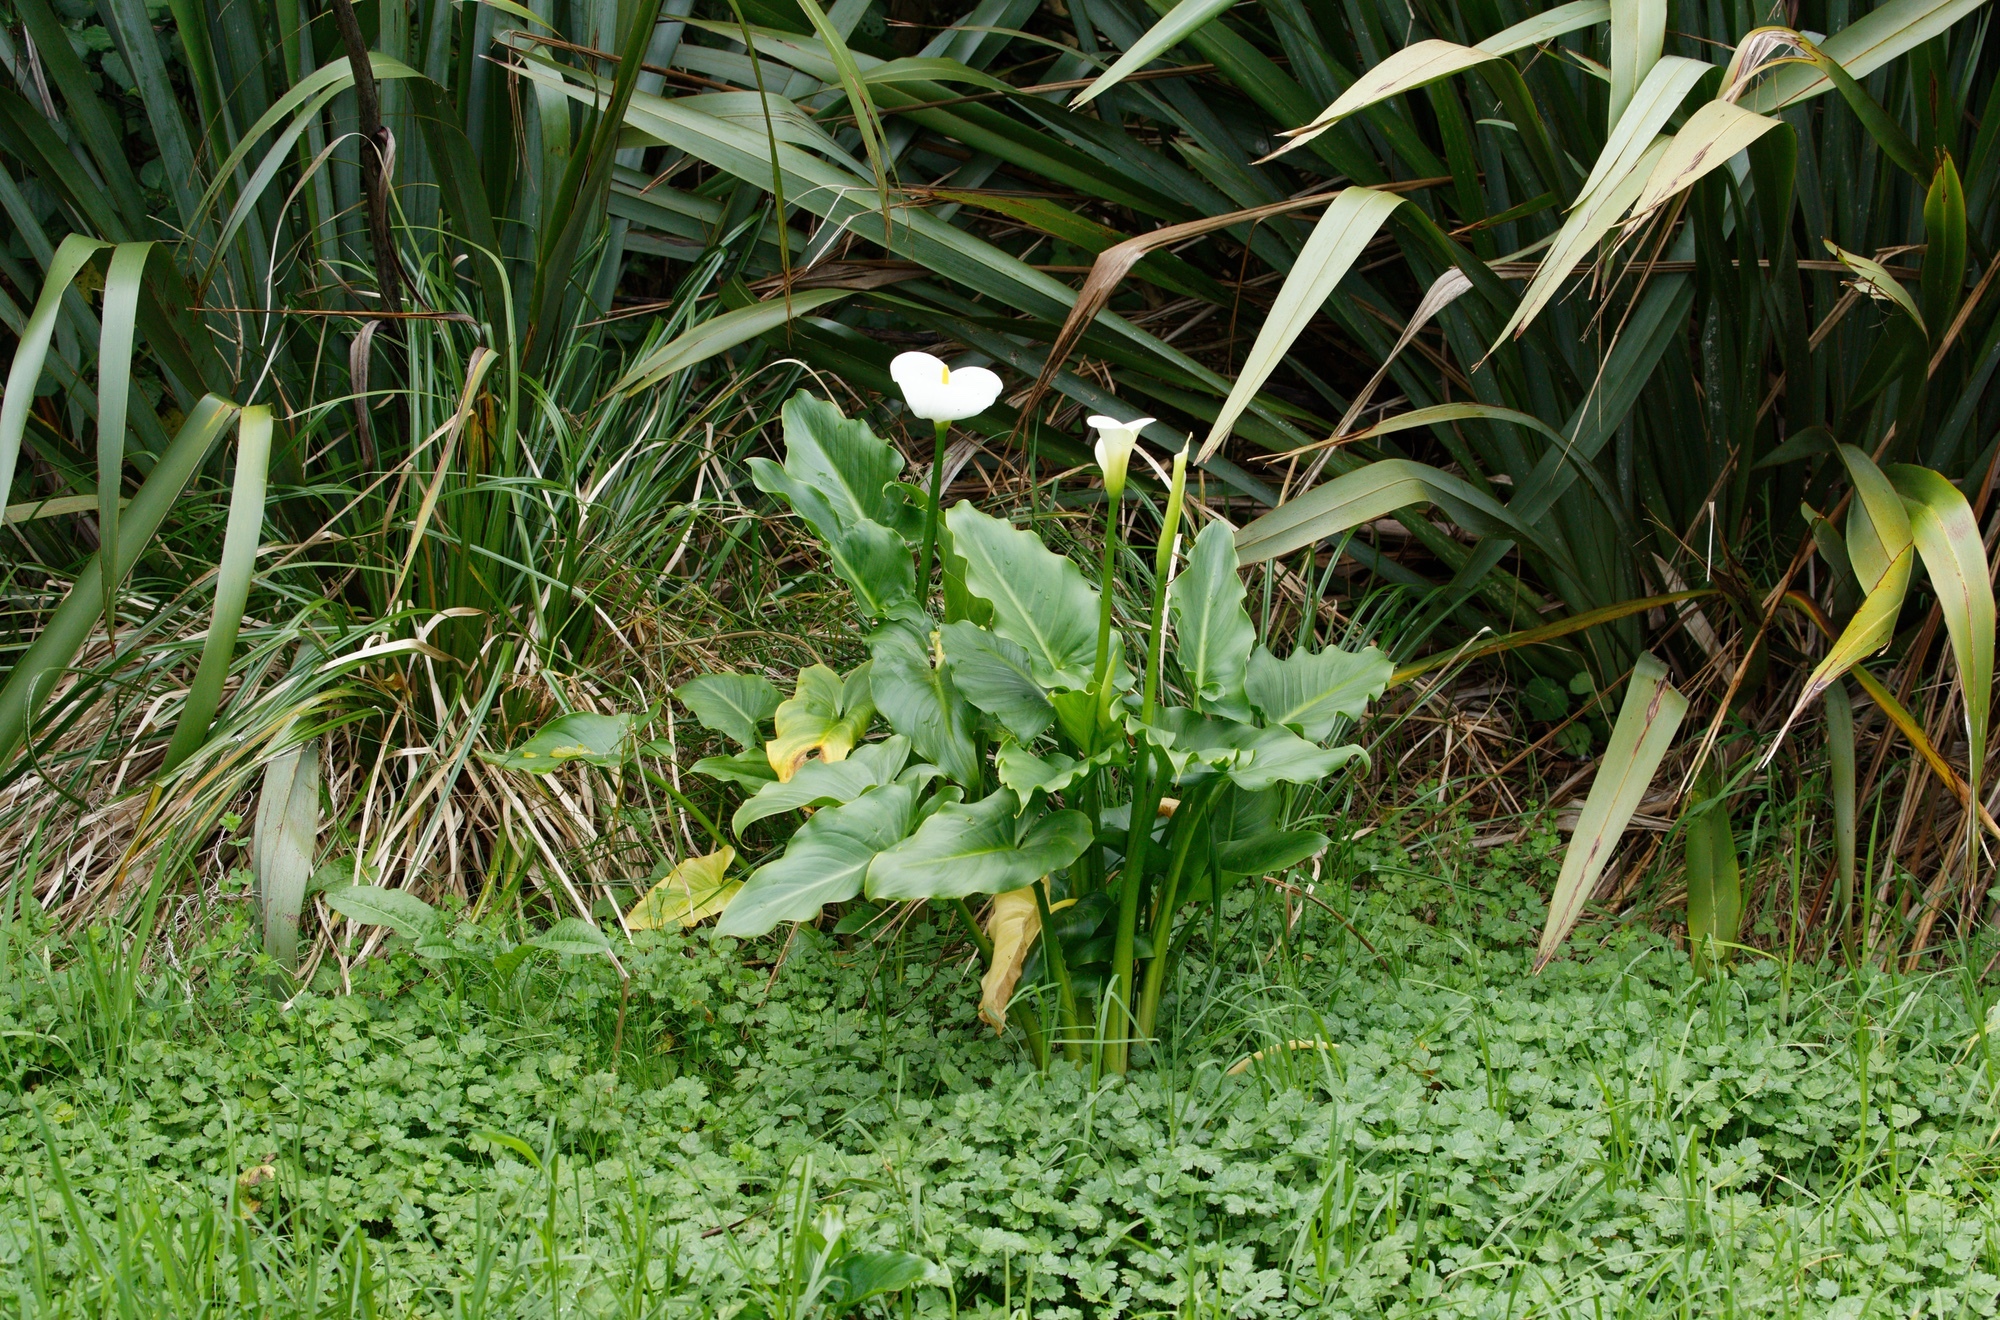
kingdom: Plantae
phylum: Tracheophyta
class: Liliopsida
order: Alismatales
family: Araceae
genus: Zantedeschia
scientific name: Zantedeschia aethiopica
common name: Altar-lily
